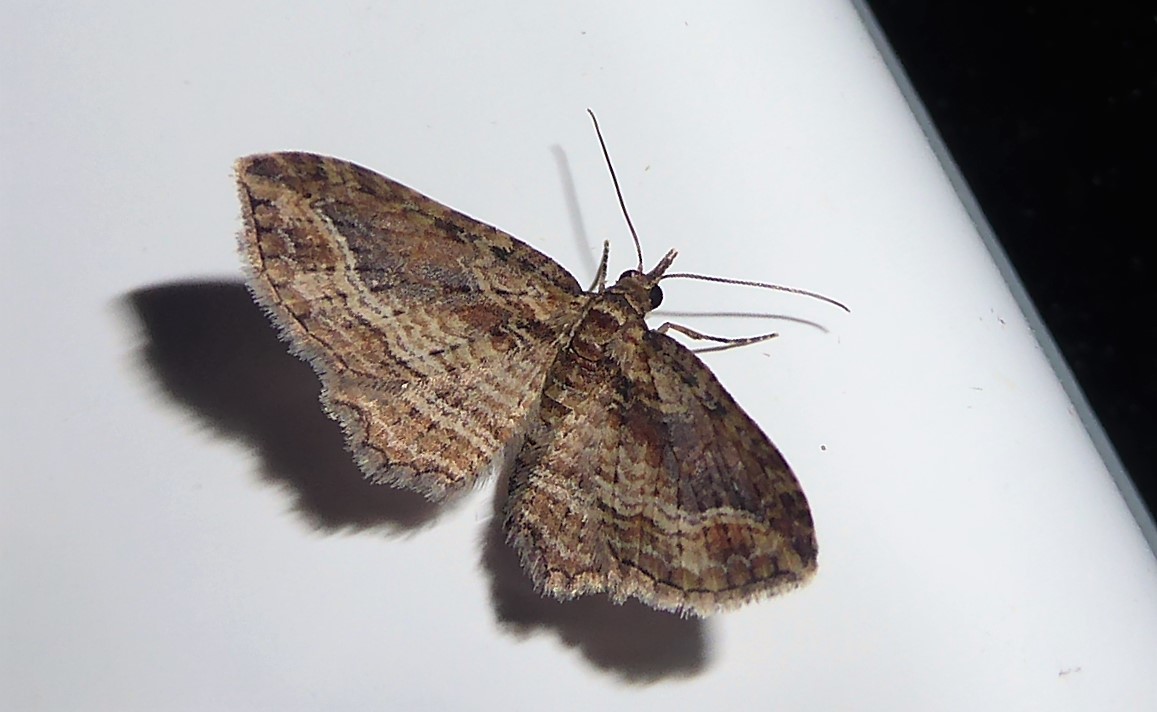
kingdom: Animalia
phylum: Arthropoda
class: Insecta
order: Lepidoptera
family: Geometridae
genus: Chloroclystis
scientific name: Chloroclystis filata
